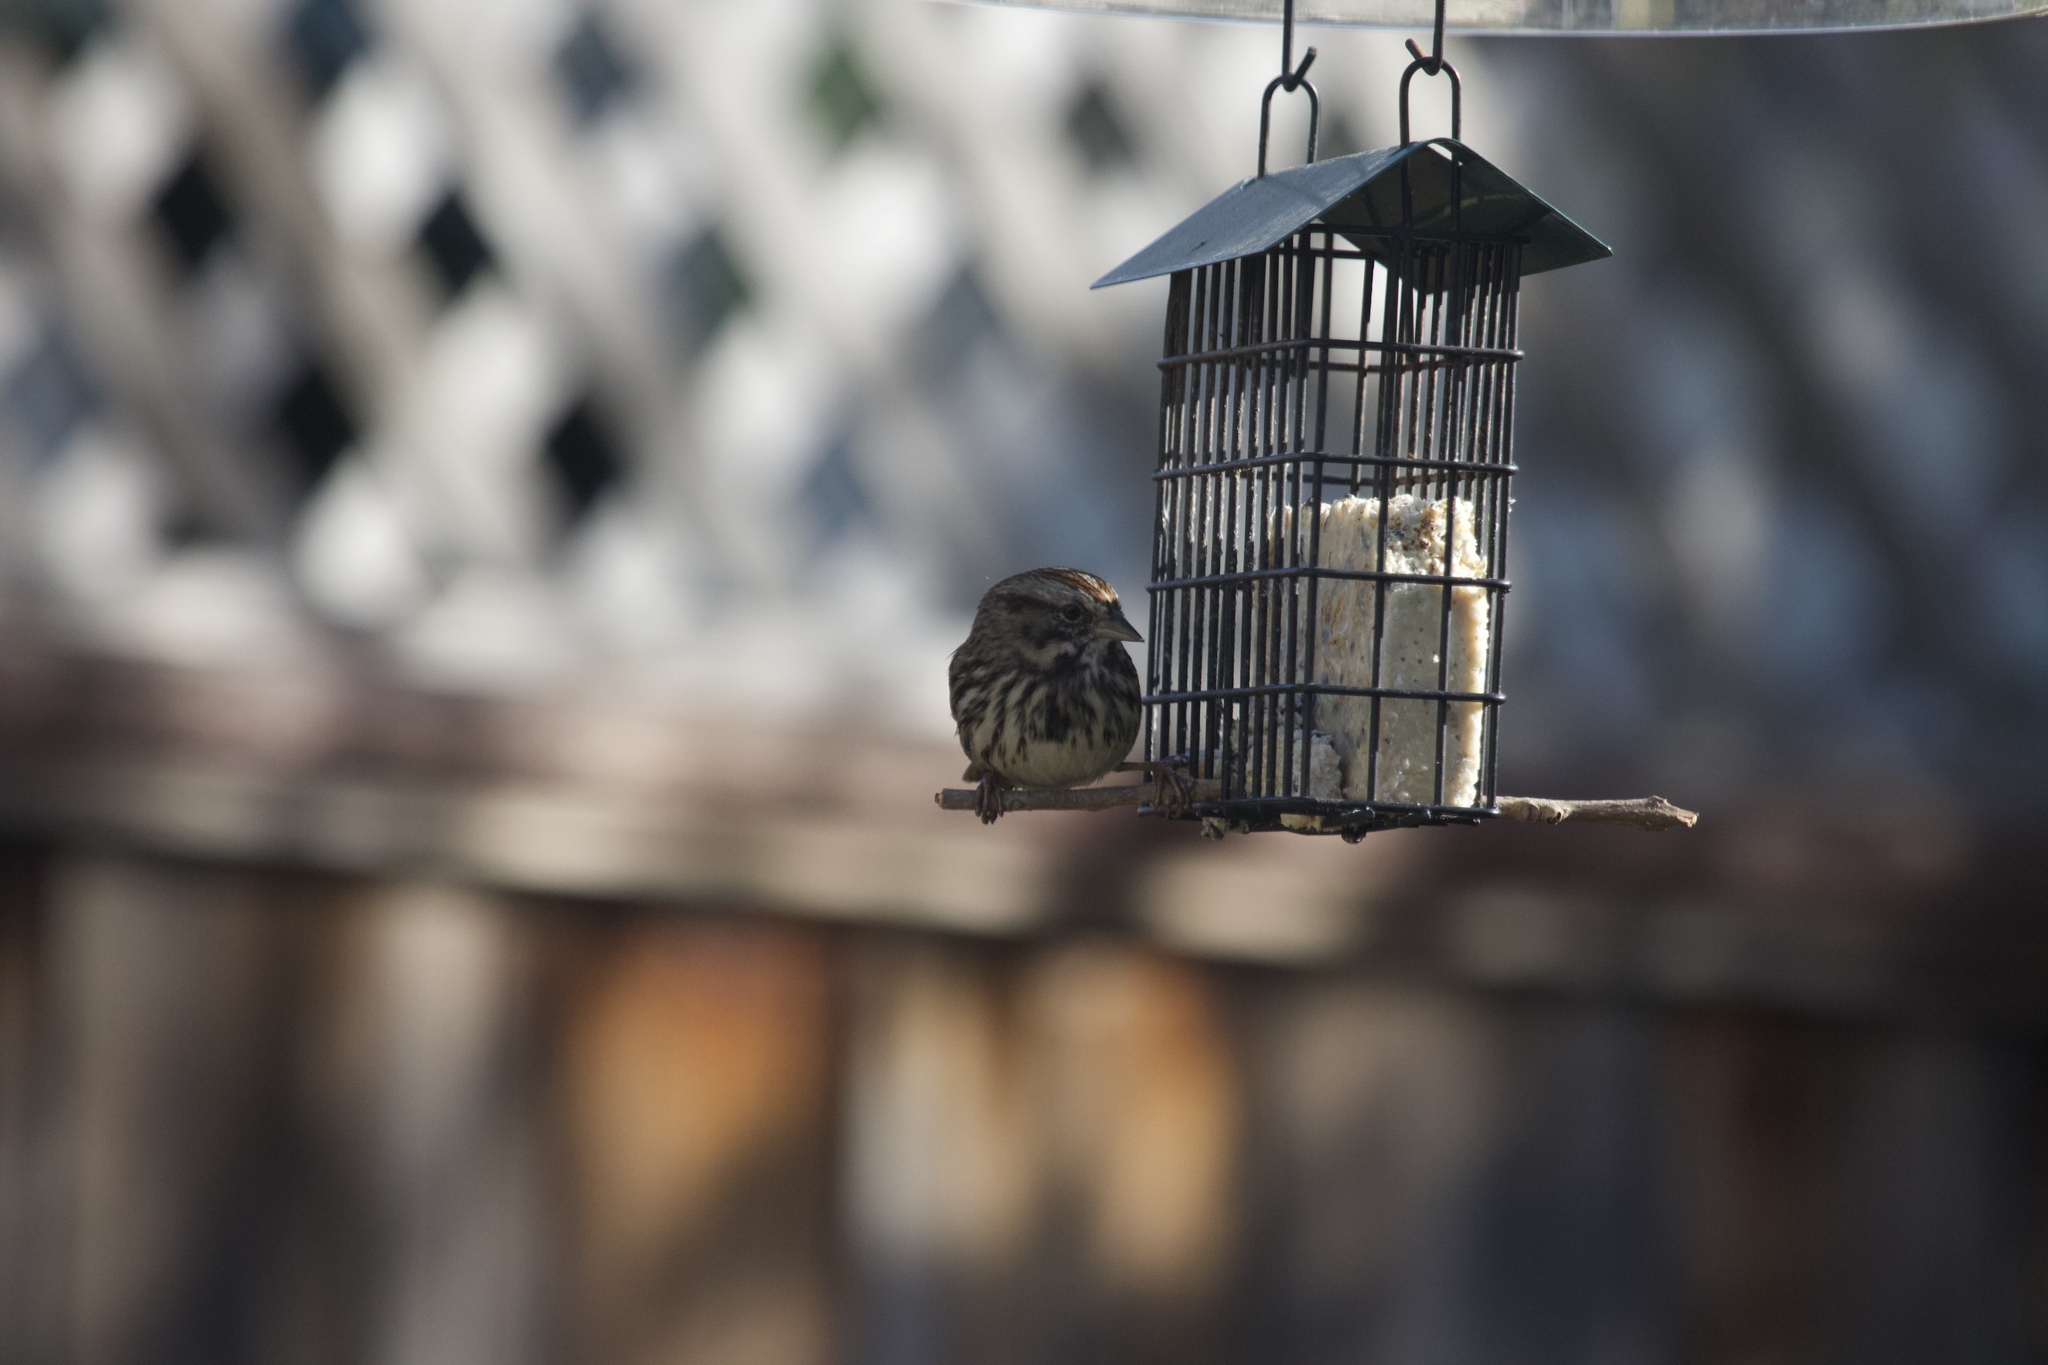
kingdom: Animalia
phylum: Chordata
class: Aves
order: Passeriformes
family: Passerellidae
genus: Melospiza
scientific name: Melospiza melodia
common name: Song sparrow
